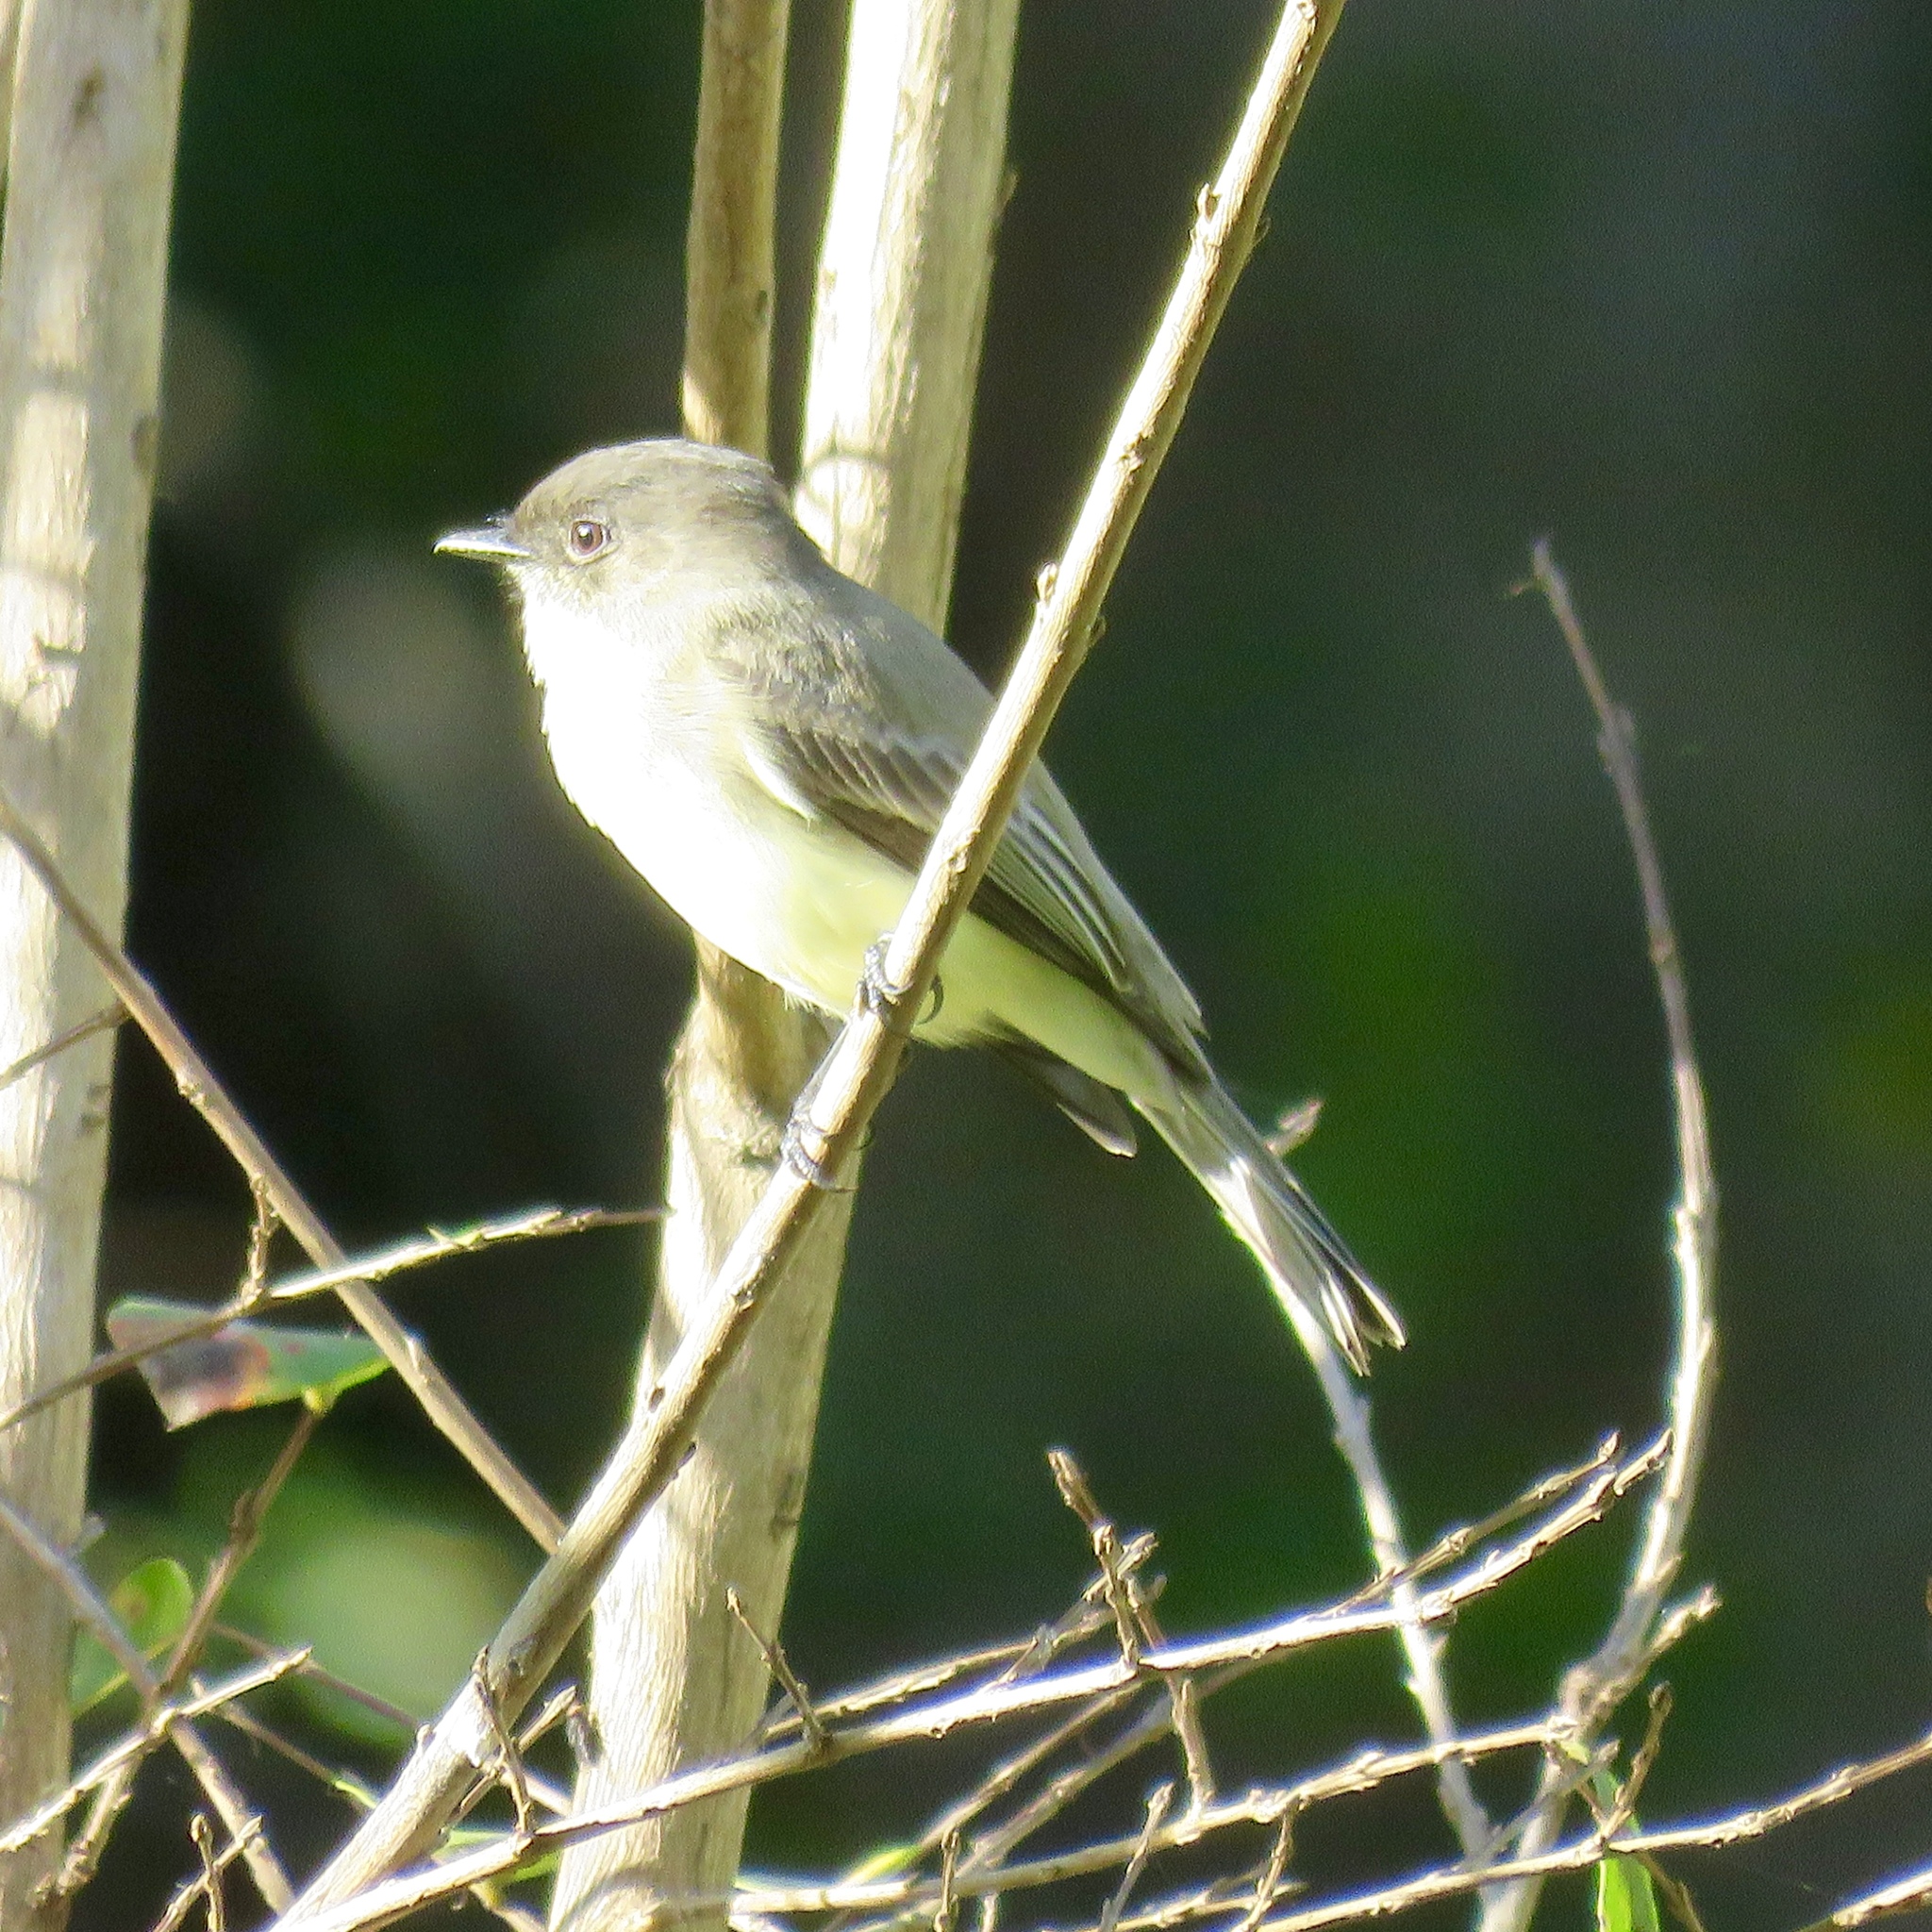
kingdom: Animalia
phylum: Chordata
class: Aves
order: Passeriformes
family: Tyrannidae
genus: Sayornis
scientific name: Sayornis phoebe
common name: Eastern phoebe
